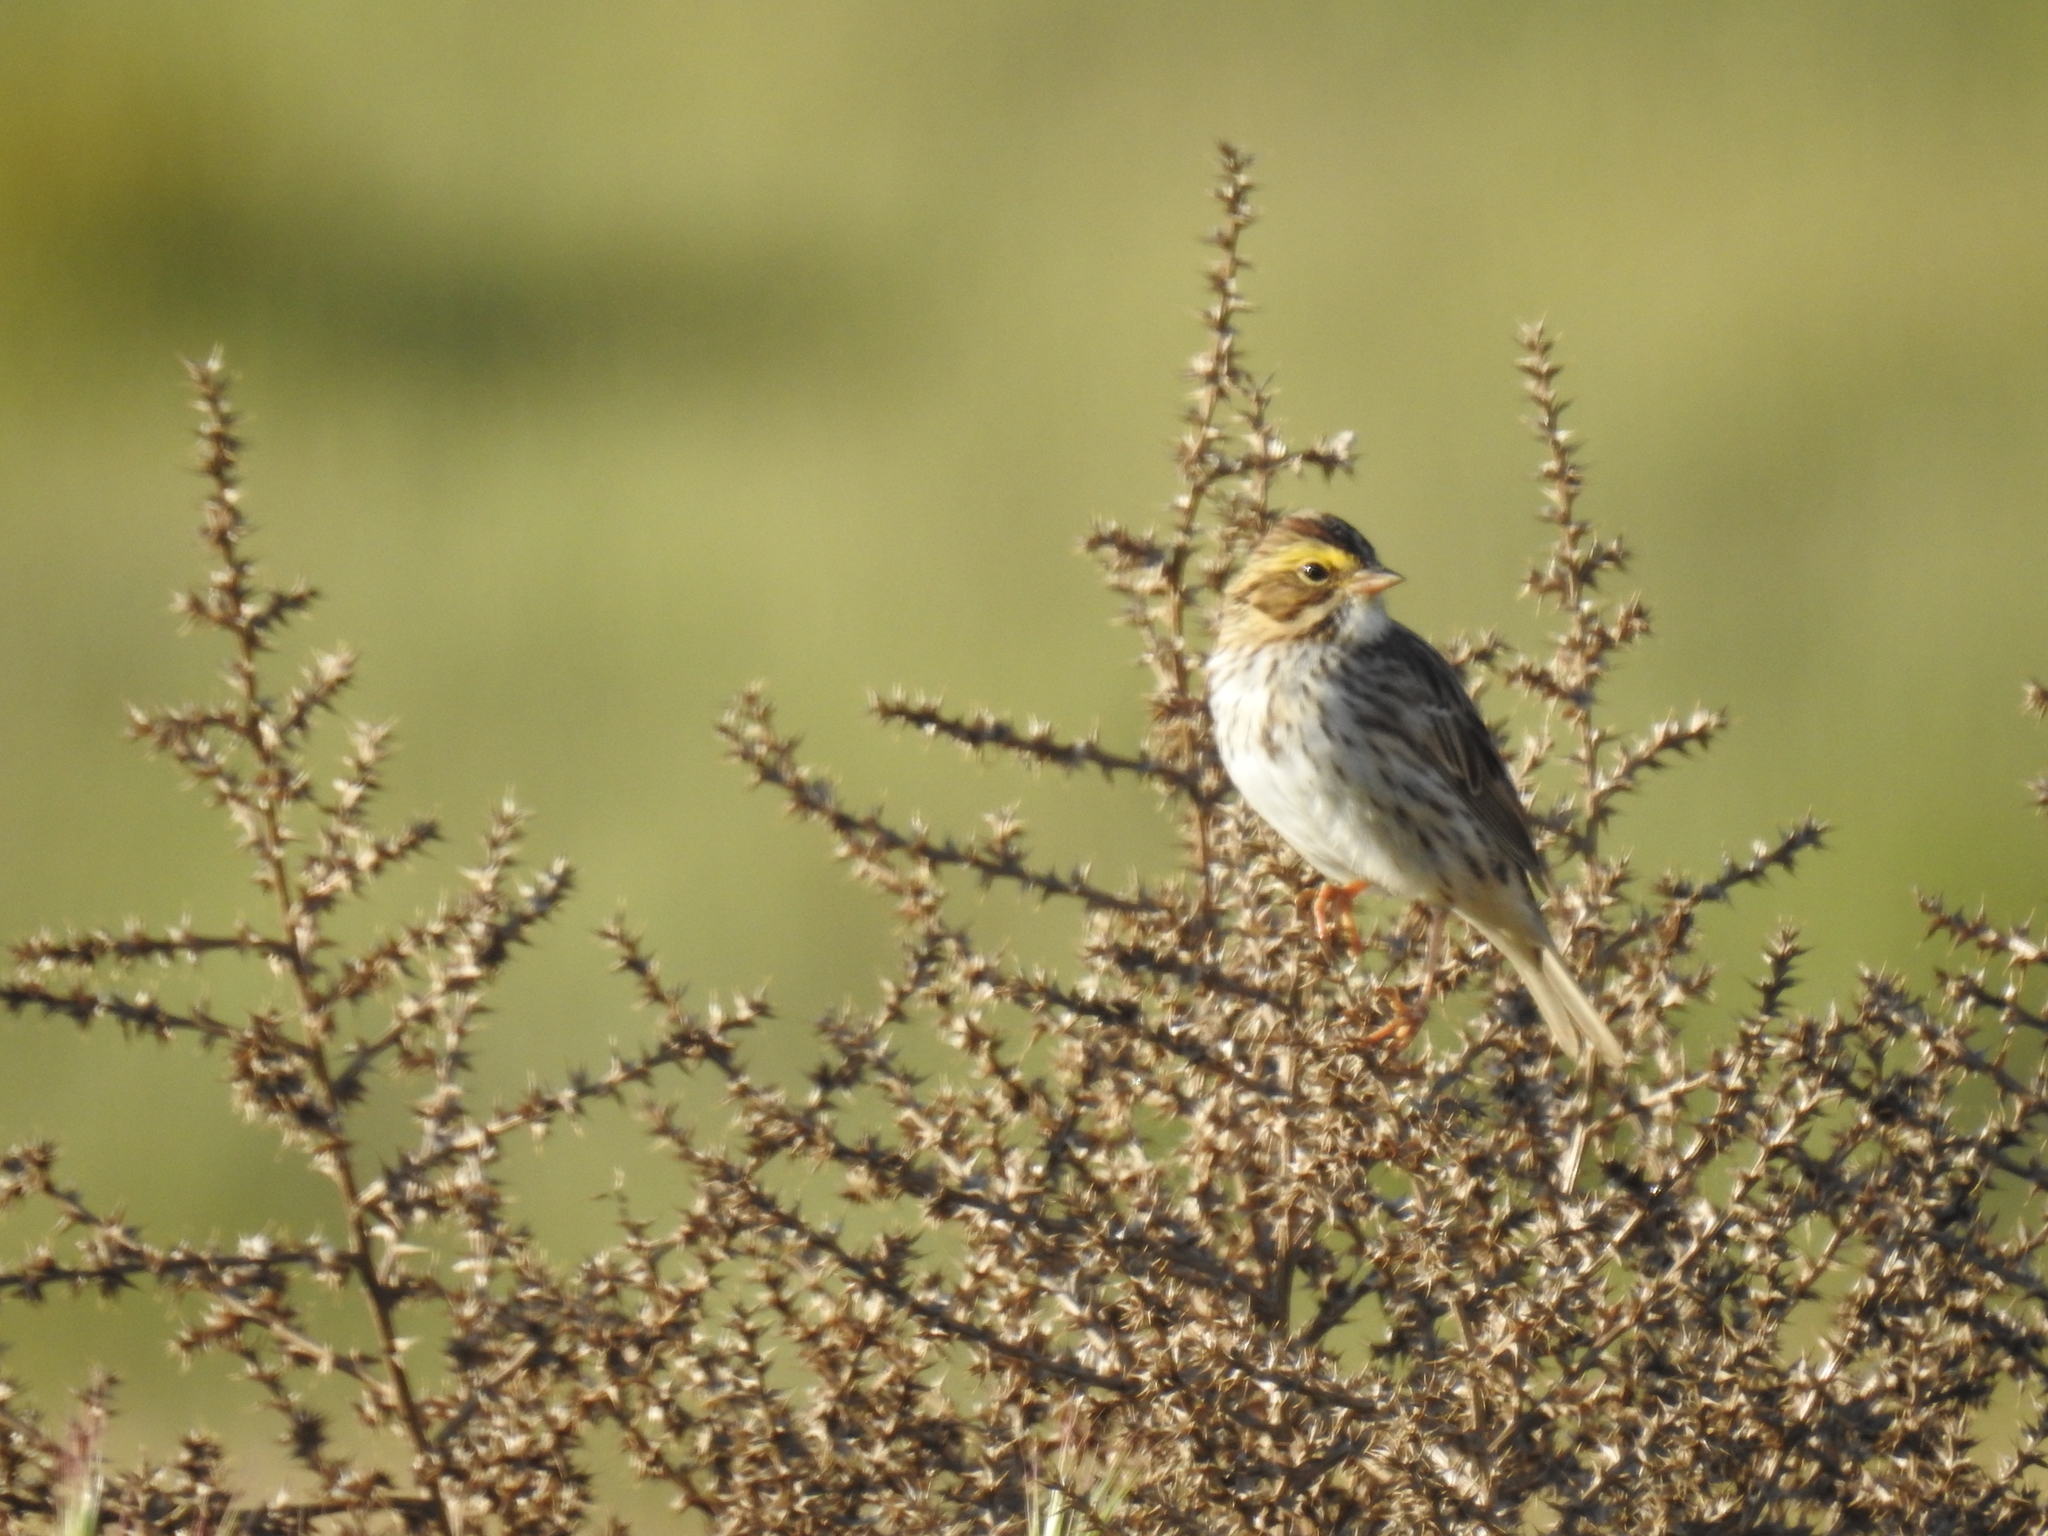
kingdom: Animalia
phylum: Chordata
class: Aves
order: Passeriformes
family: Passerellidae
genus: Passerculus
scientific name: Passerculus sandwichensis
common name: Savannah sparrow
